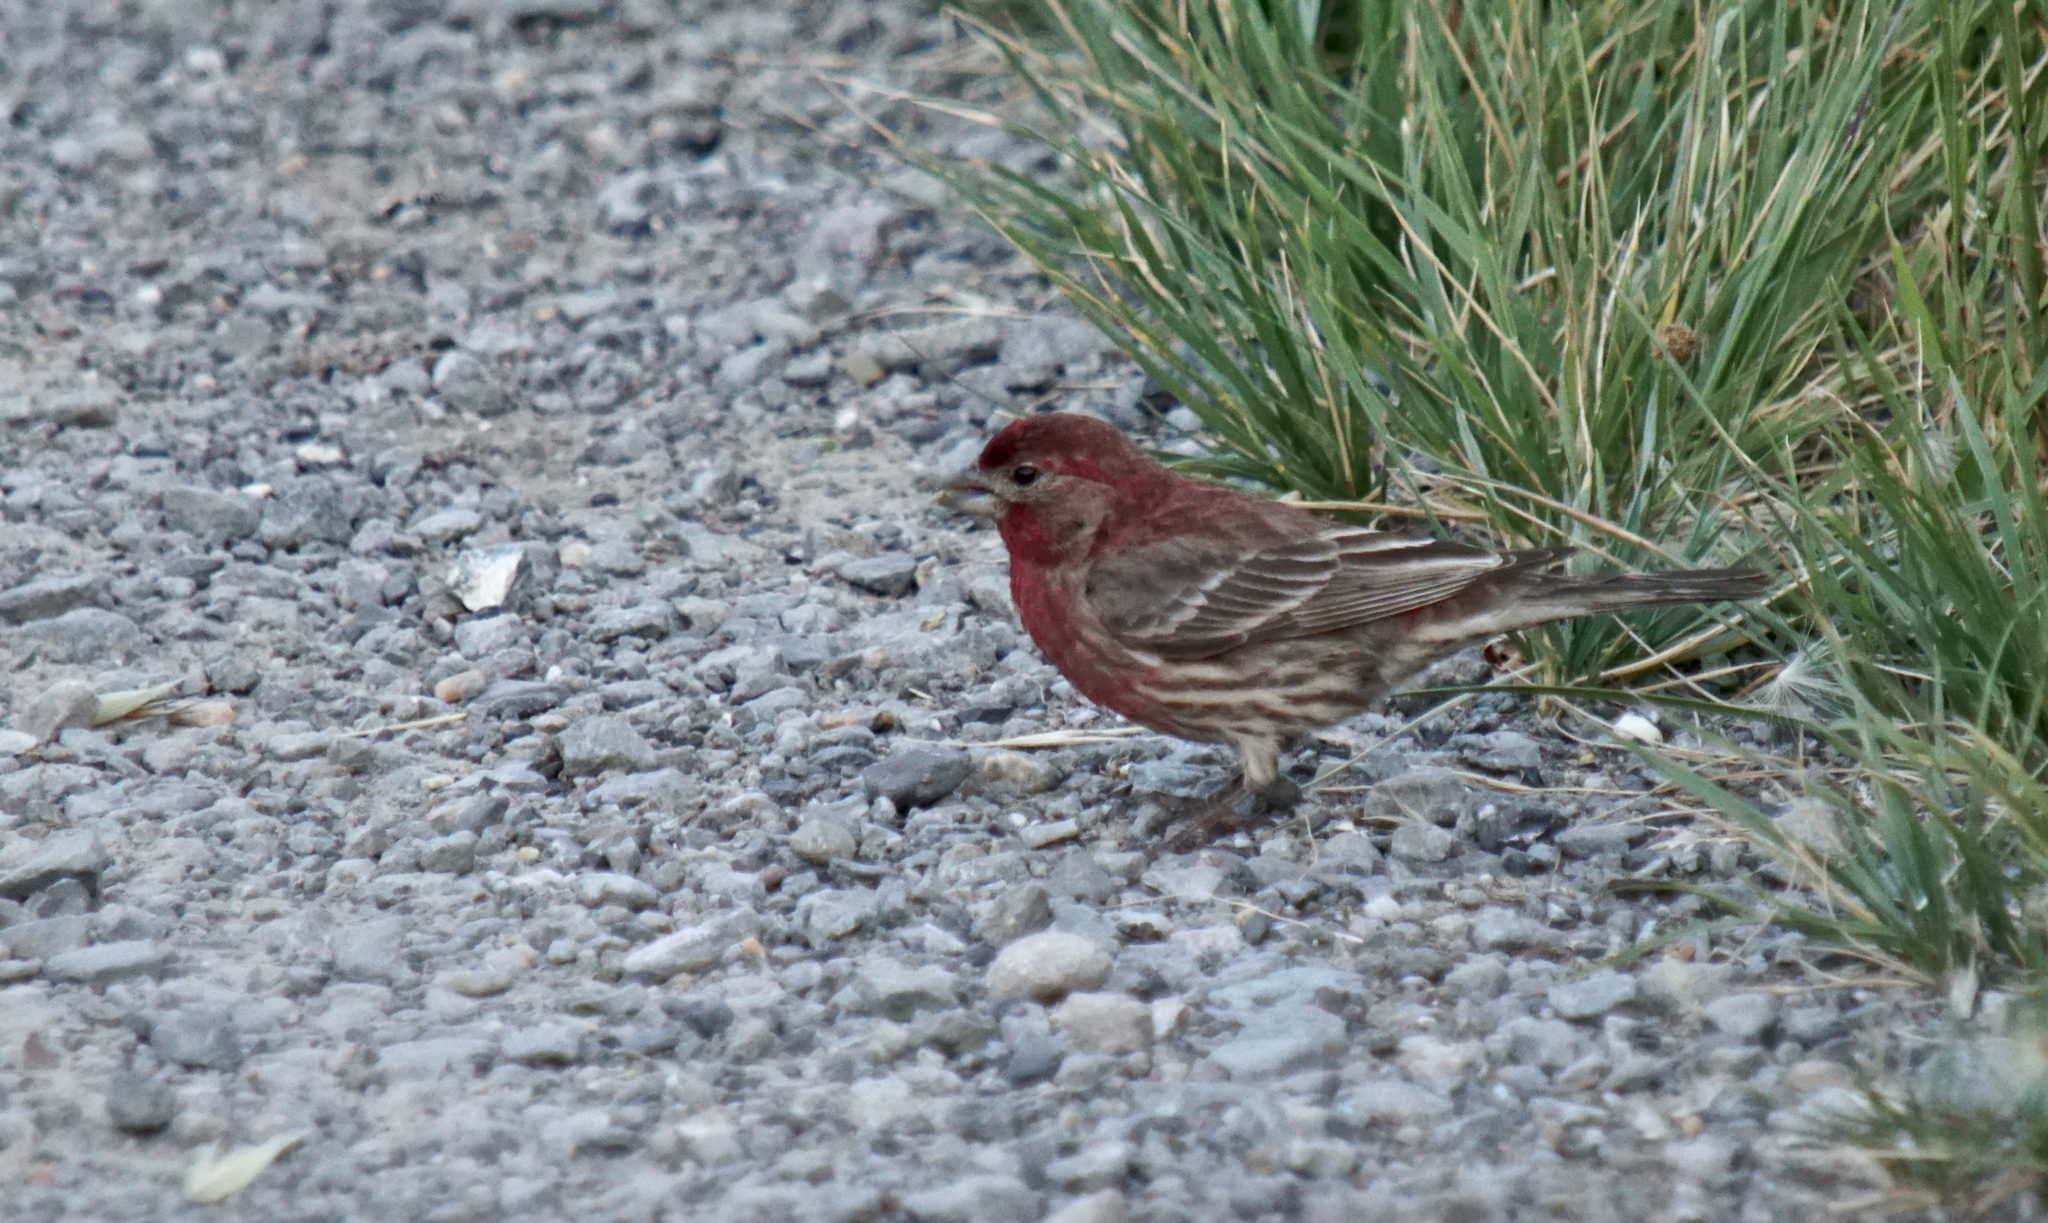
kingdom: Animalia
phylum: Chordata
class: Aves
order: Passeriformes
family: Fringillidae
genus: Haemorhous
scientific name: Haemorhous mexicanus
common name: House finch
